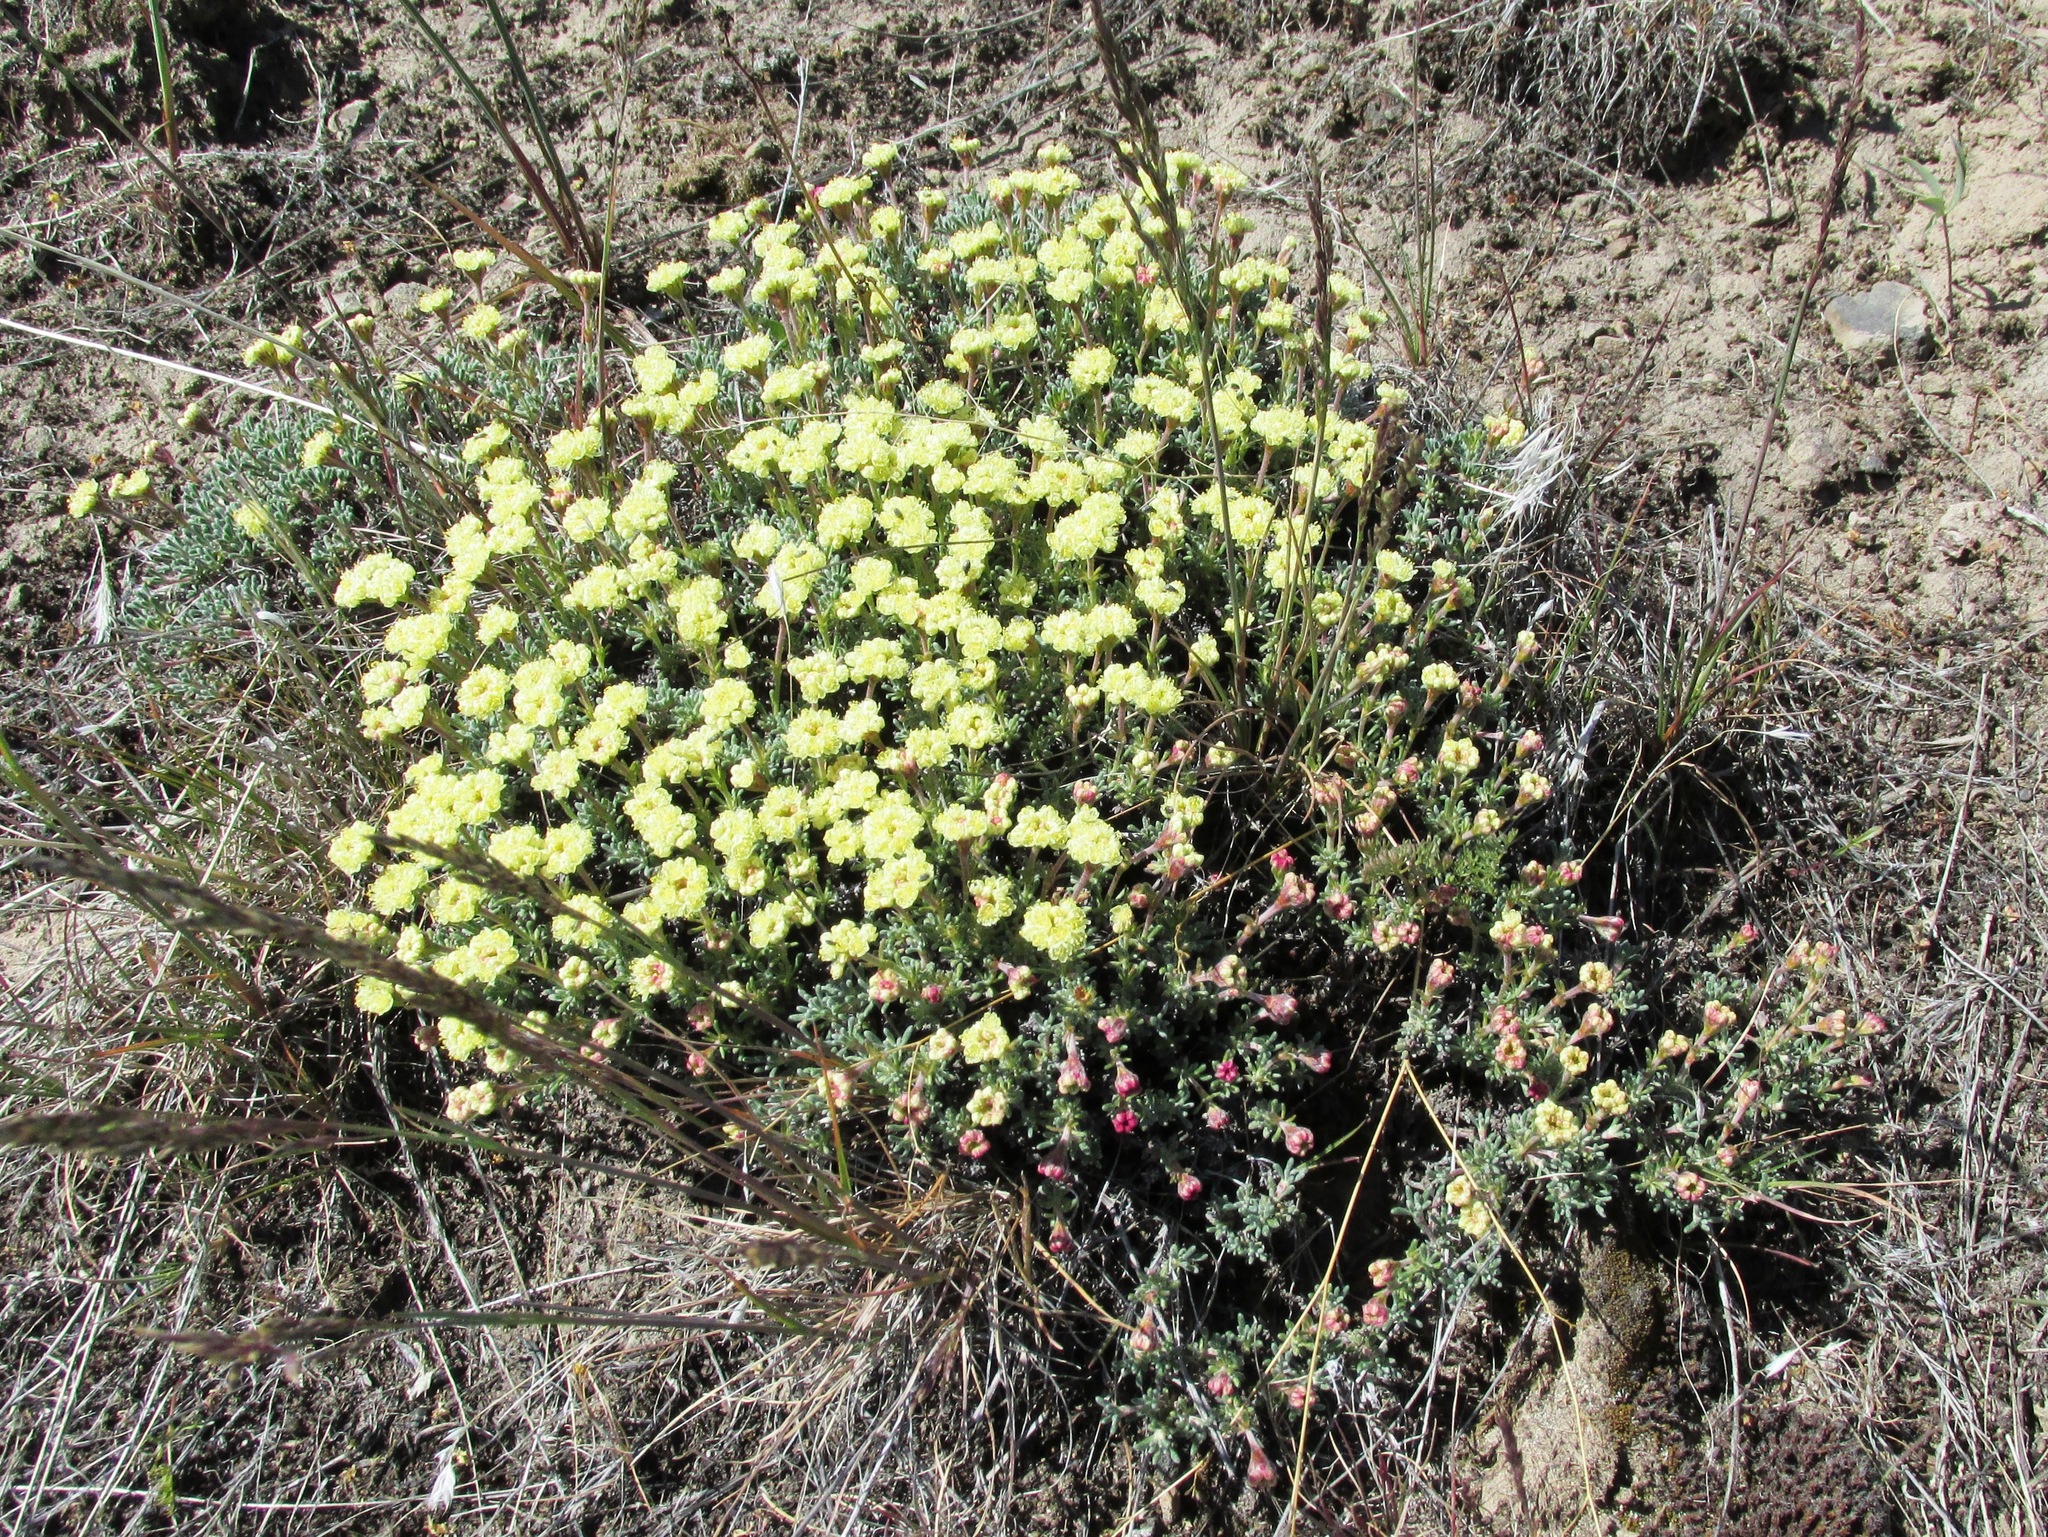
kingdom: Plantae
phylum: Tracheophyta
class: Magnoliopsida
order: Caryophyllales
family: Polygonaceae
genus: Eriogonum
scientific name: Eriogonum thymoides
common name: Thyme-leaf wild buckwheat
